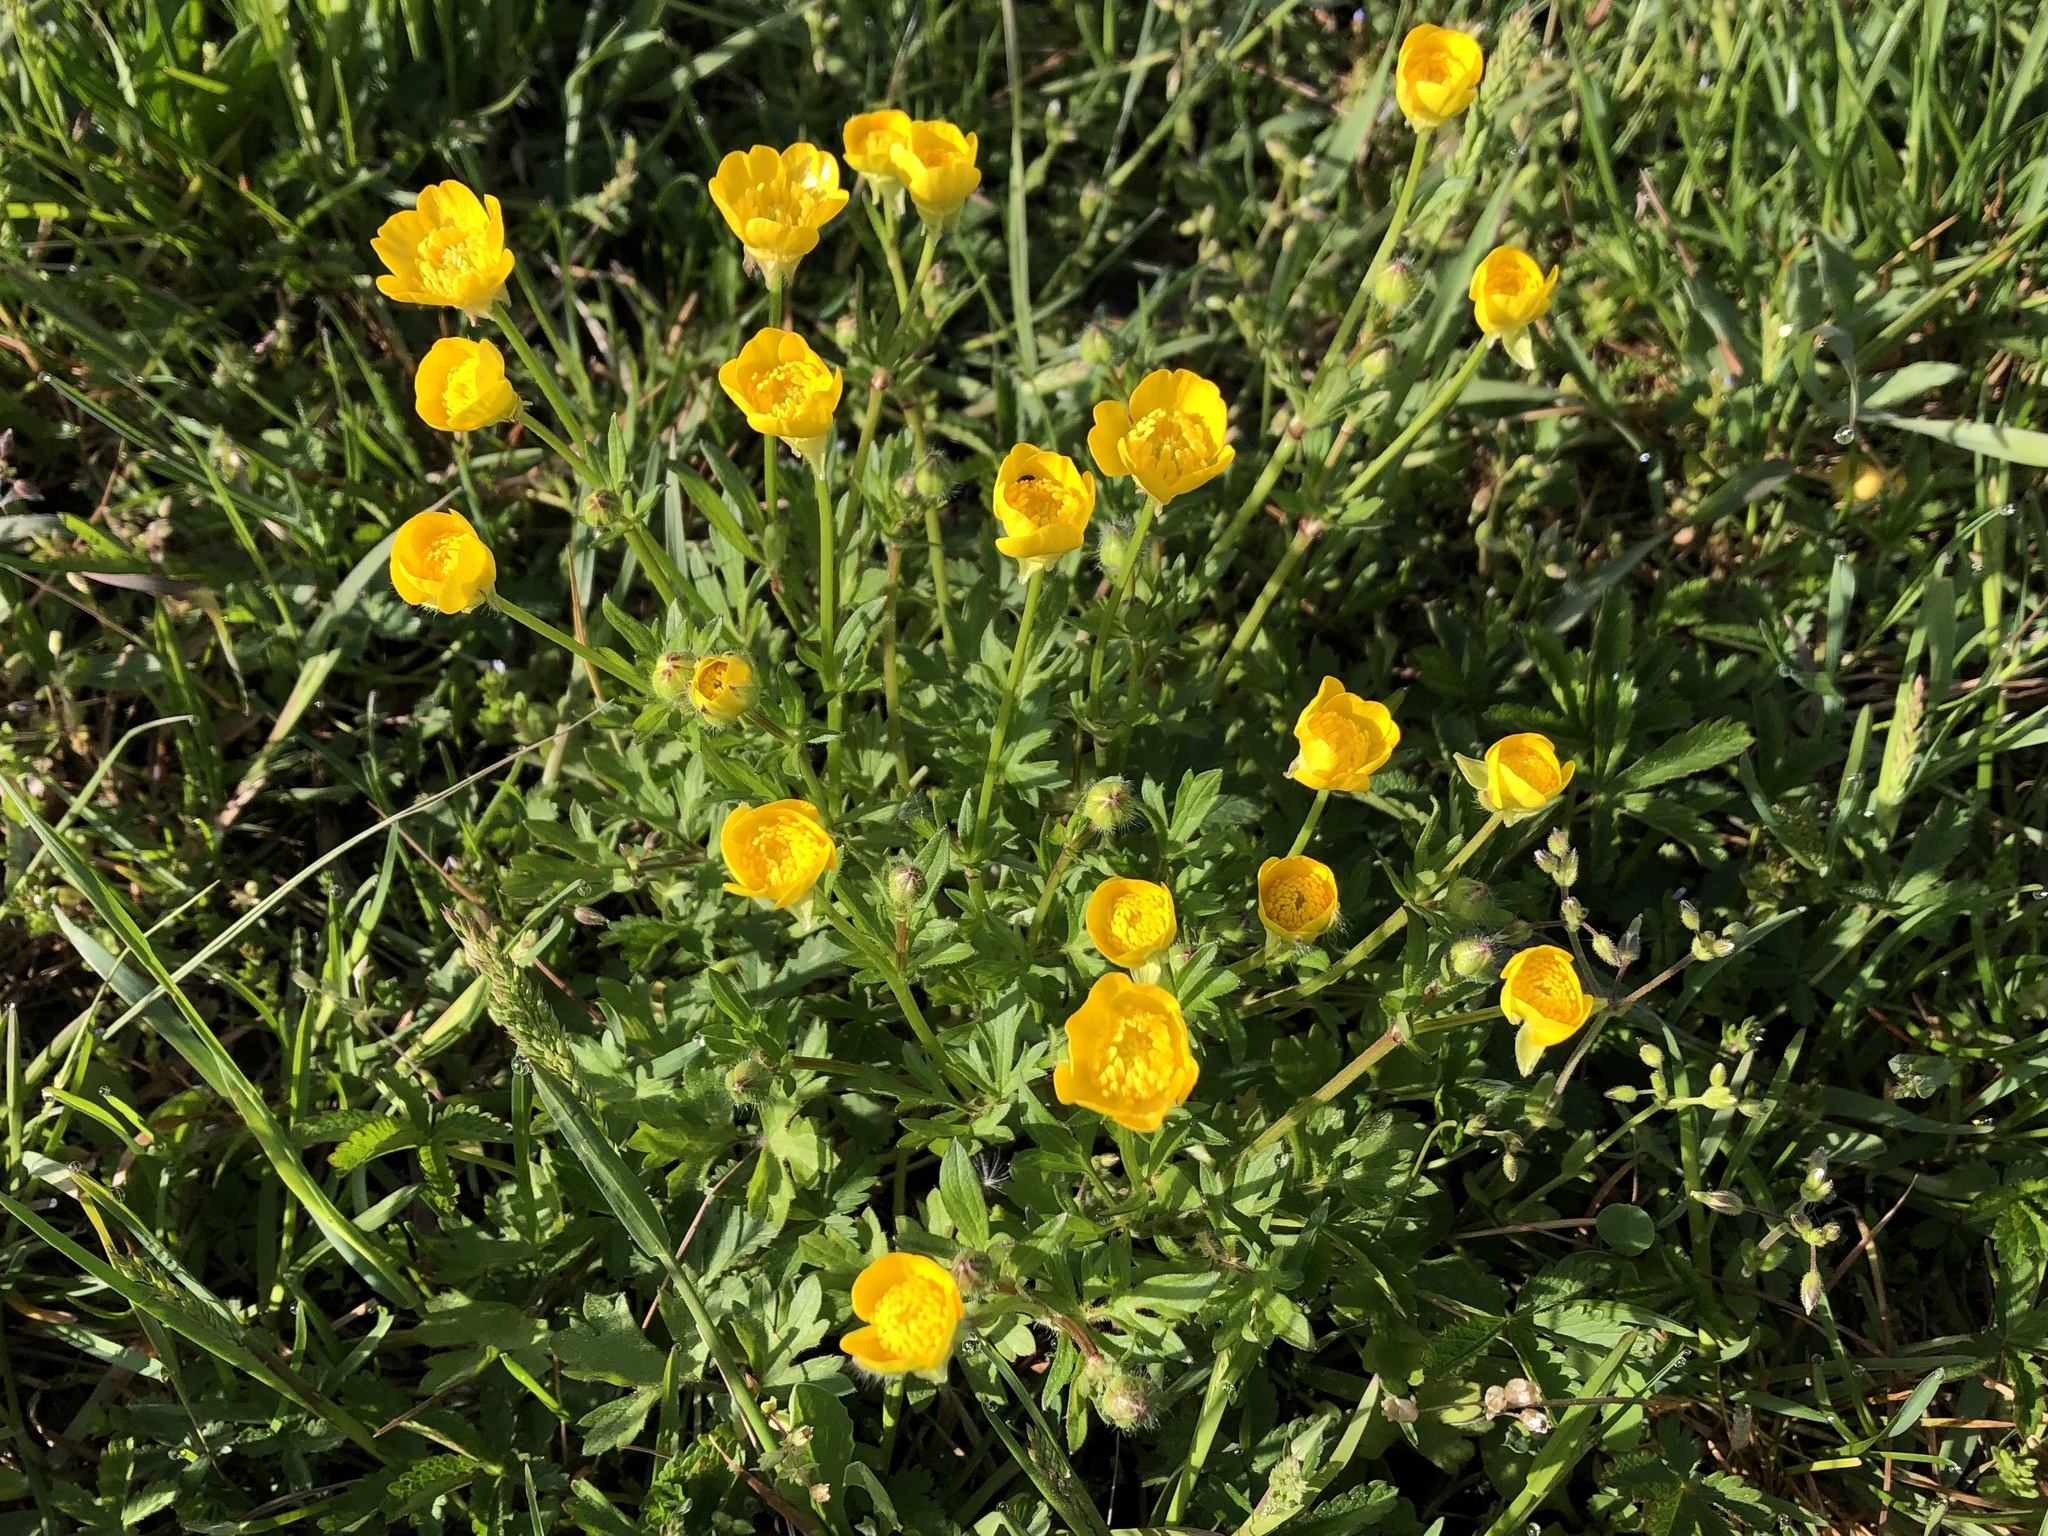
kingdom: Plantae
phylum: Tracheophyta
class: Magnoliopsida
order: Ranunculales
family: Ranunculaceae
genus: Ranunculus
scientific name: Ranunculus bulbosus
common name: Bulbous buttercup
